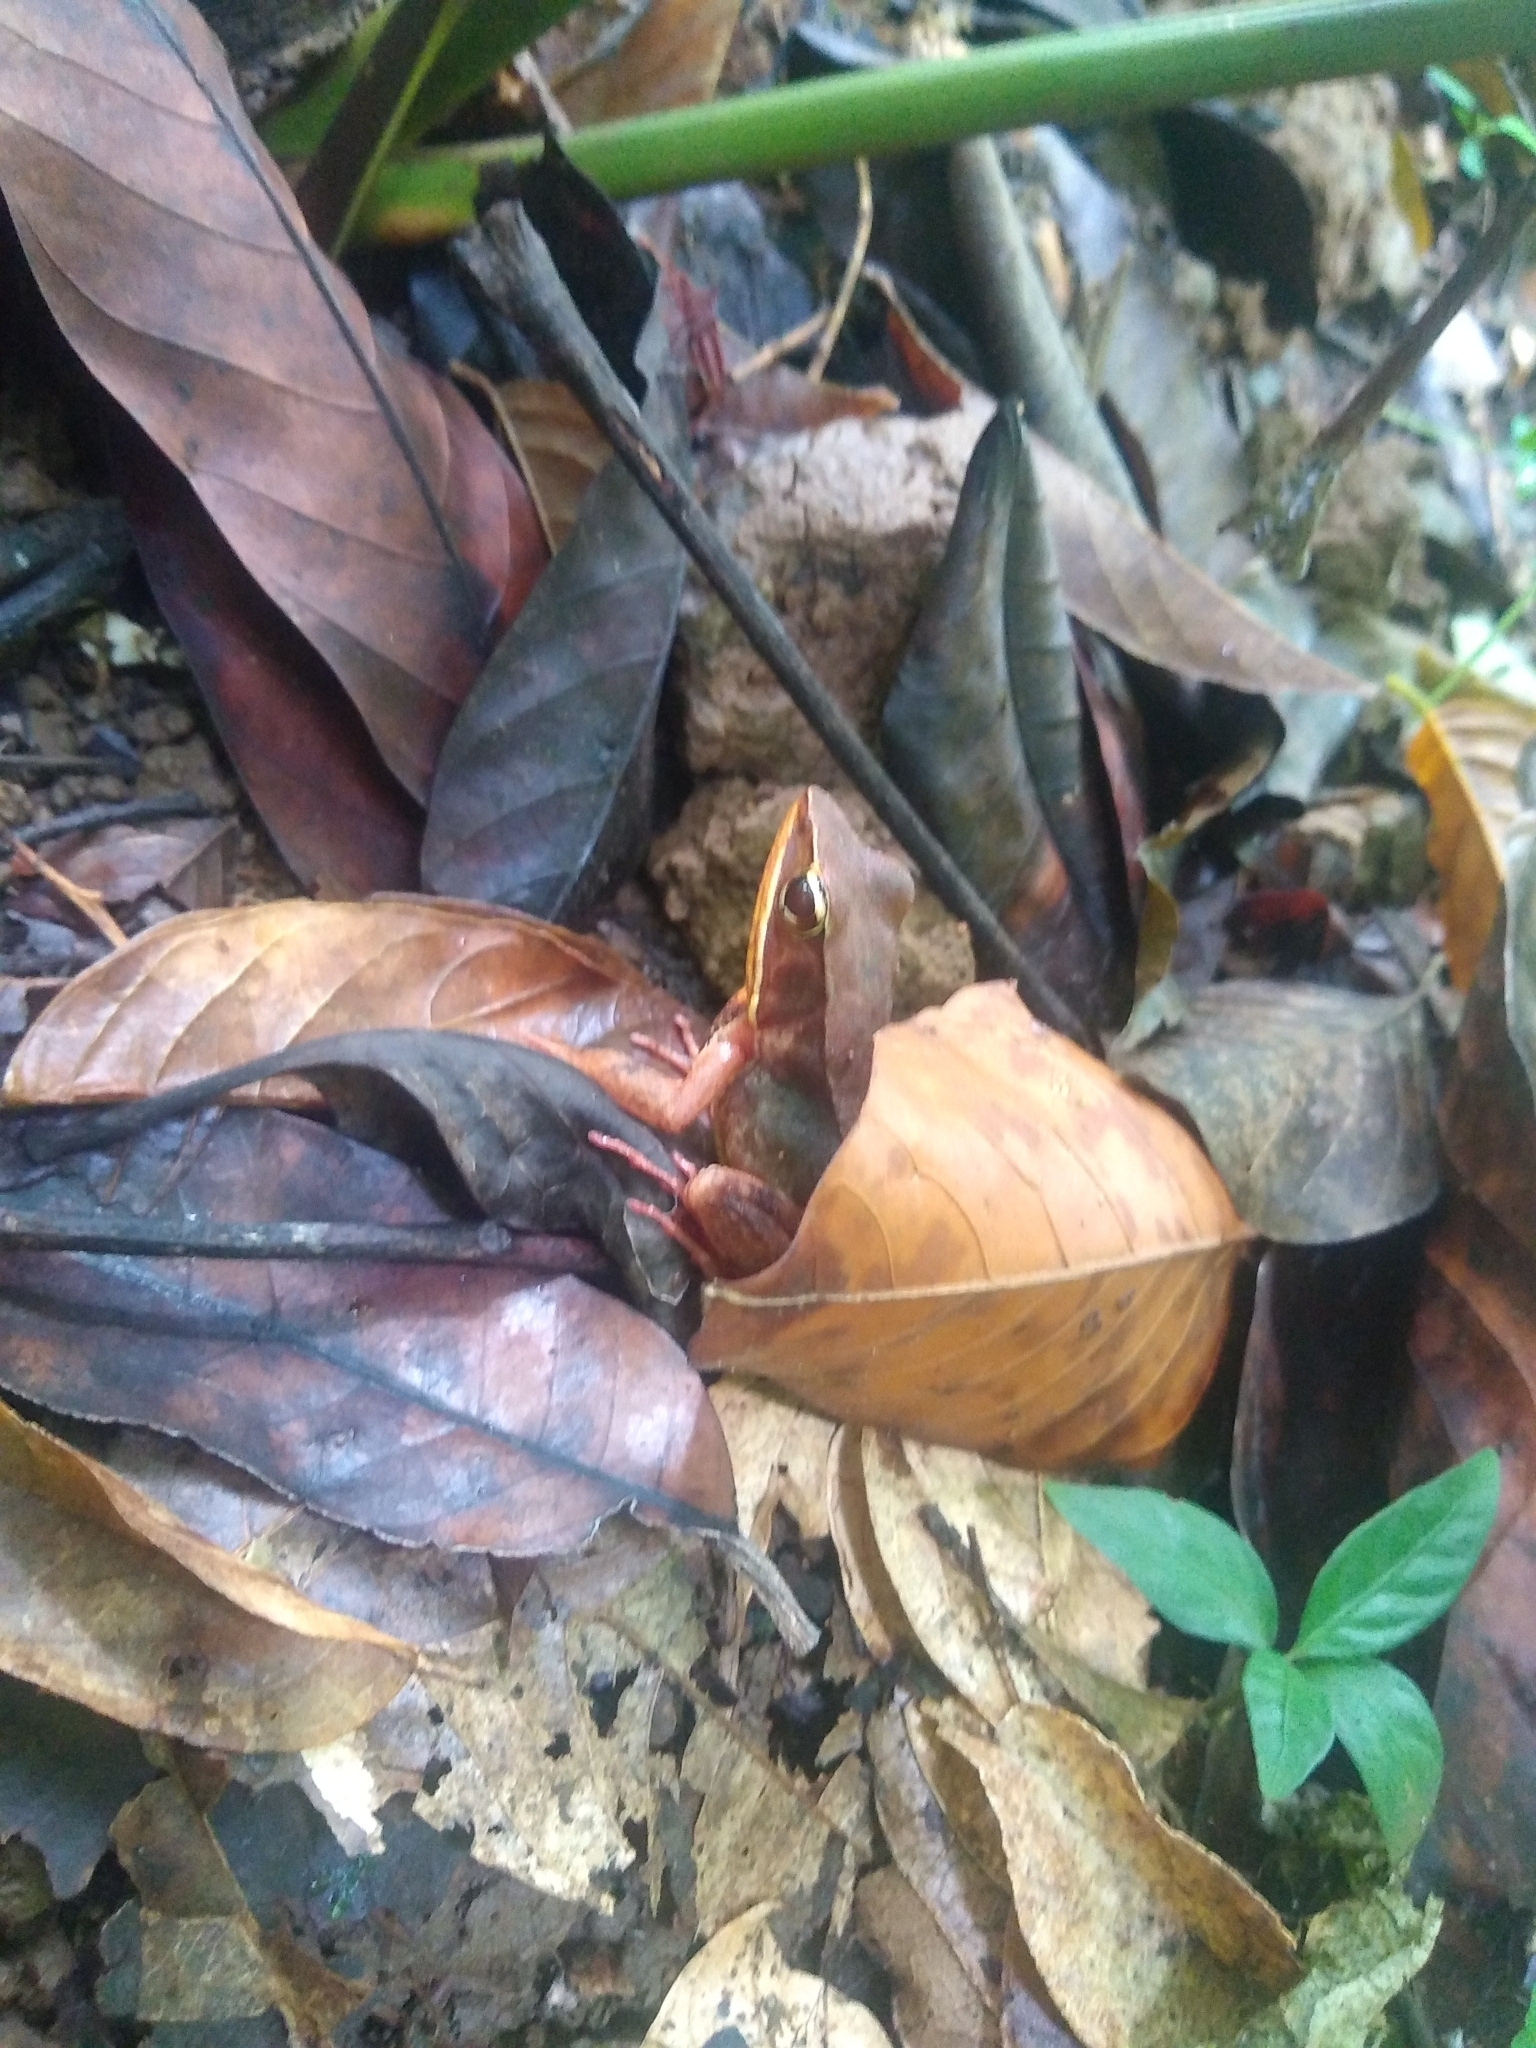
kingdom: Animalia
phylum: Chordata
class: Amphibia
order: Anura
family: Ranidae
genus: Lithobates
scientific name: Lithobates warszewitschii
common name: Warszewitsch's frog
